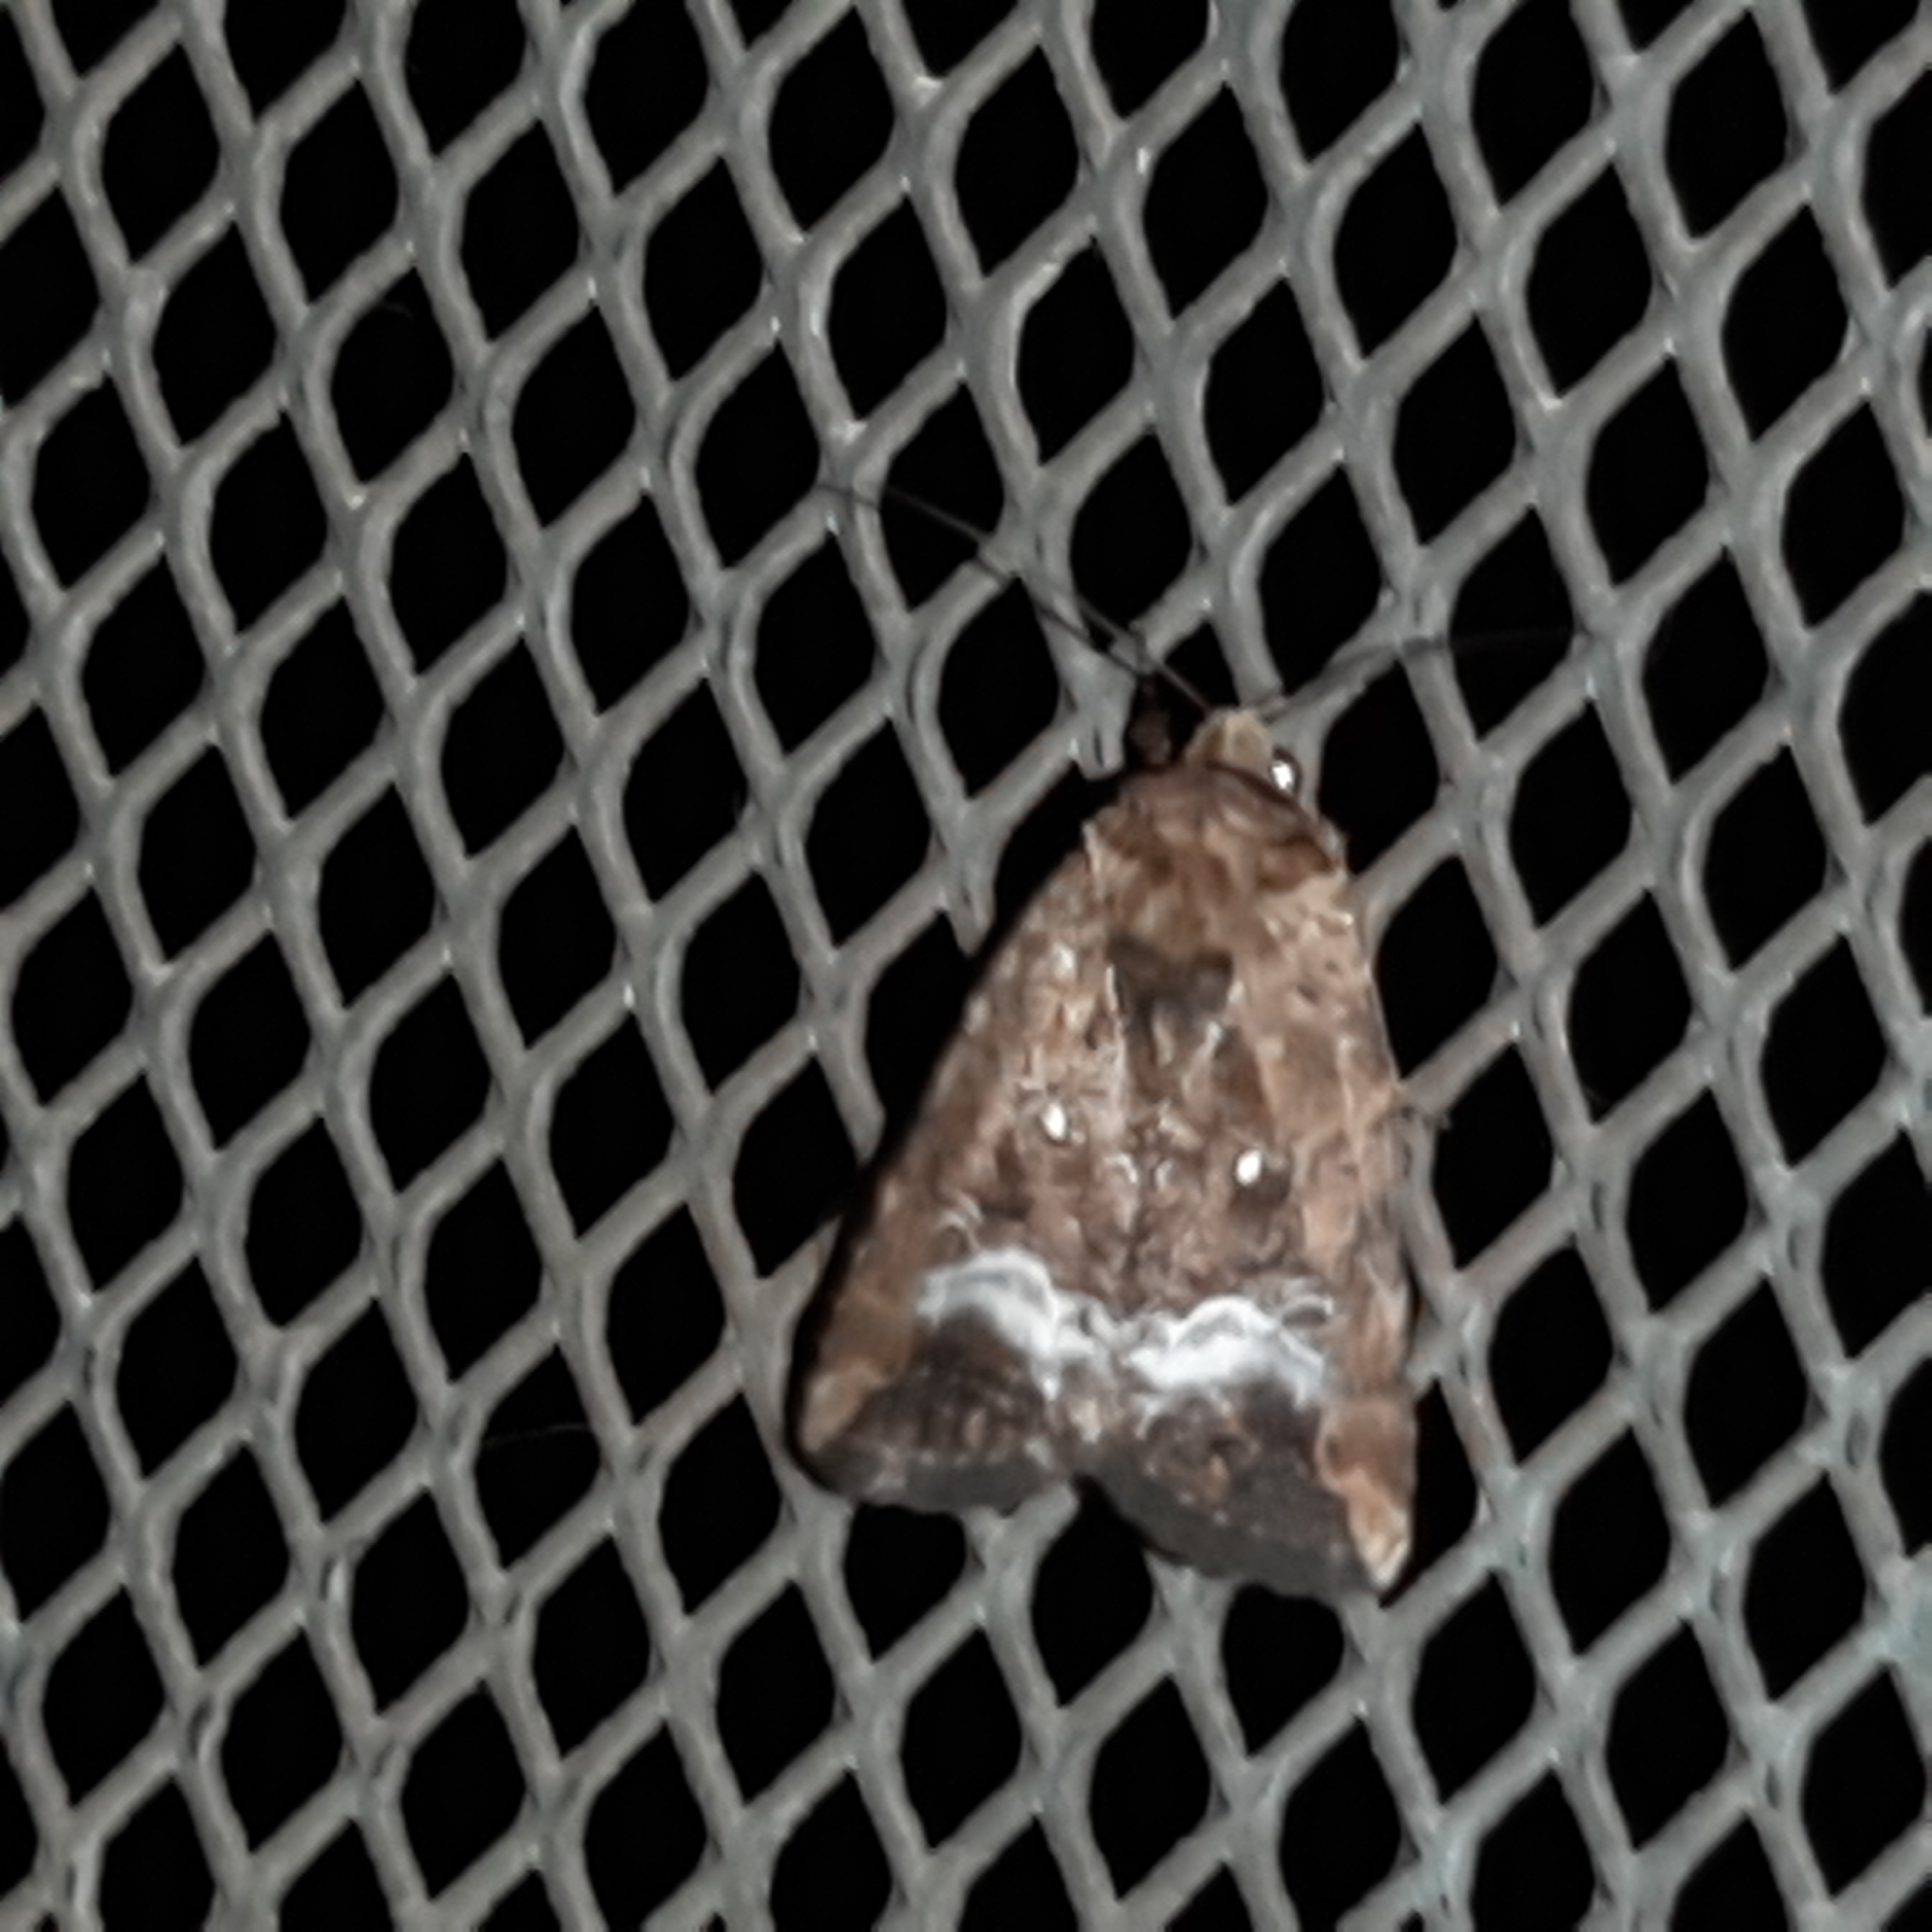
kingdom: Animalia
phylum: Arthropoda
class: Insecta
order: Lepidoptera
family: Noctuidae
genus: Elaphria
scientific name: Elaphria subobliqua
